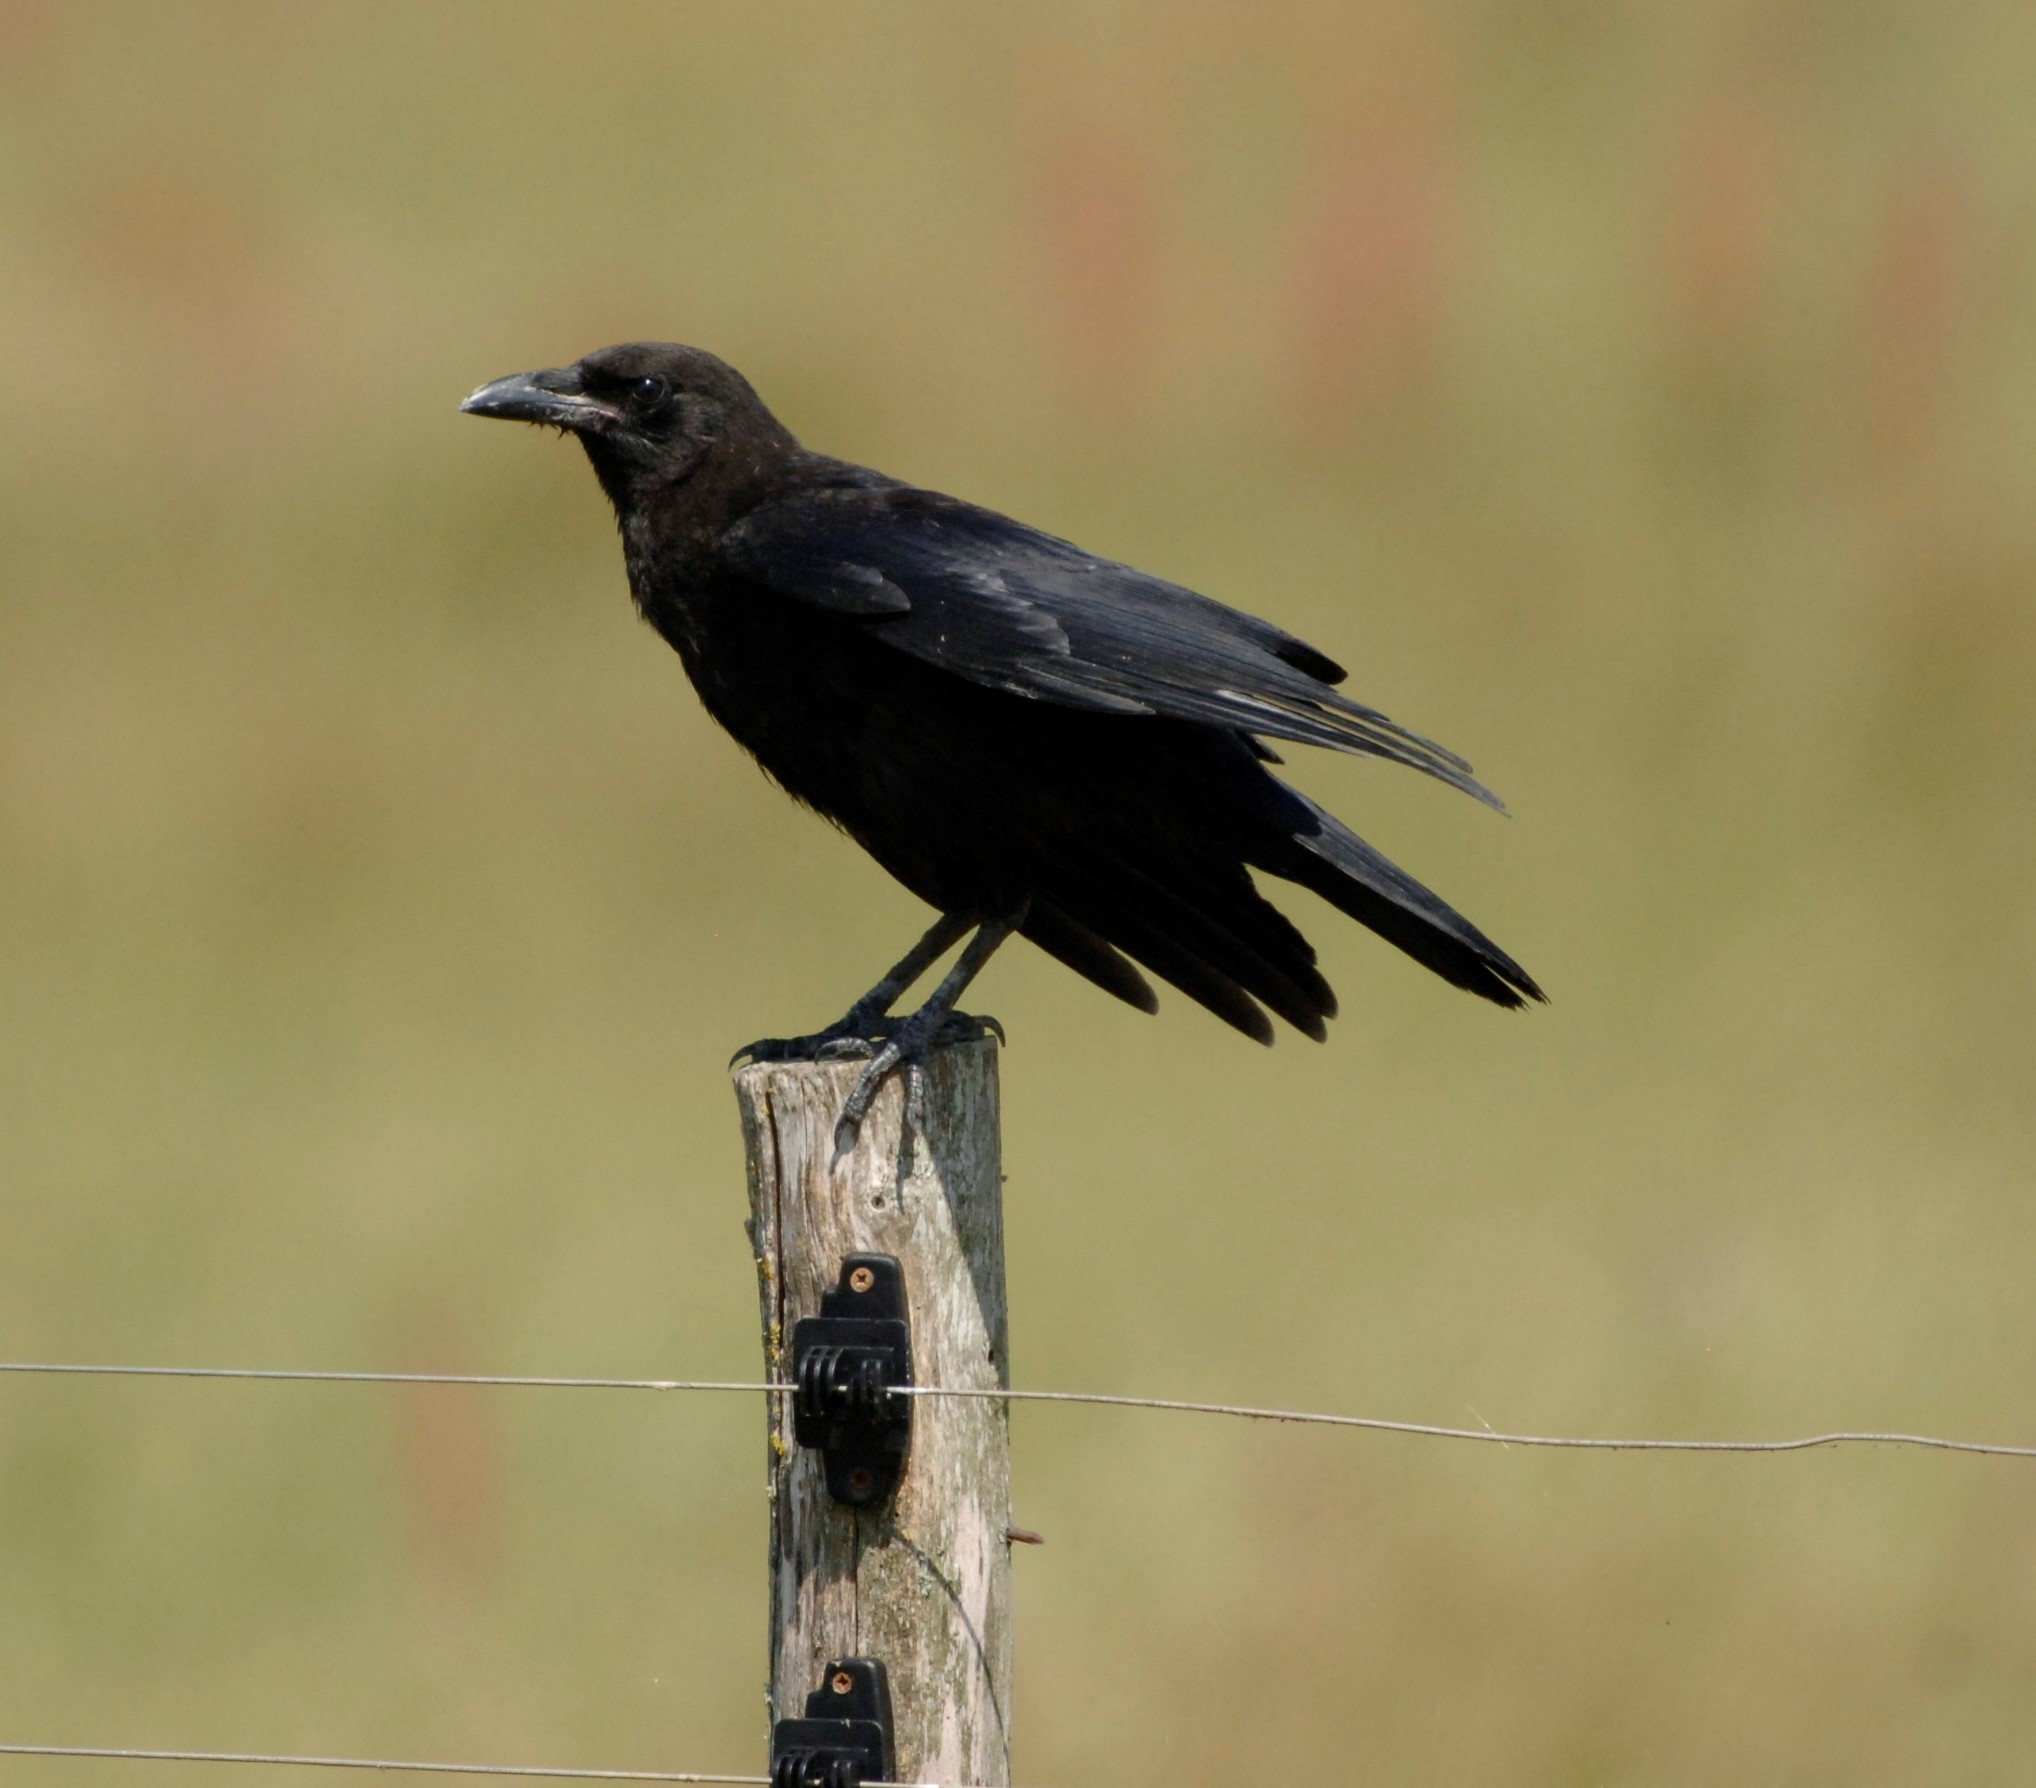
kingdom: Animalia
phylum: Chordata
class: Aves
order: Passeriformes
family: Corvidae
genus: Corvus
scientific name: Corvus corone
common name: Carrion crow
